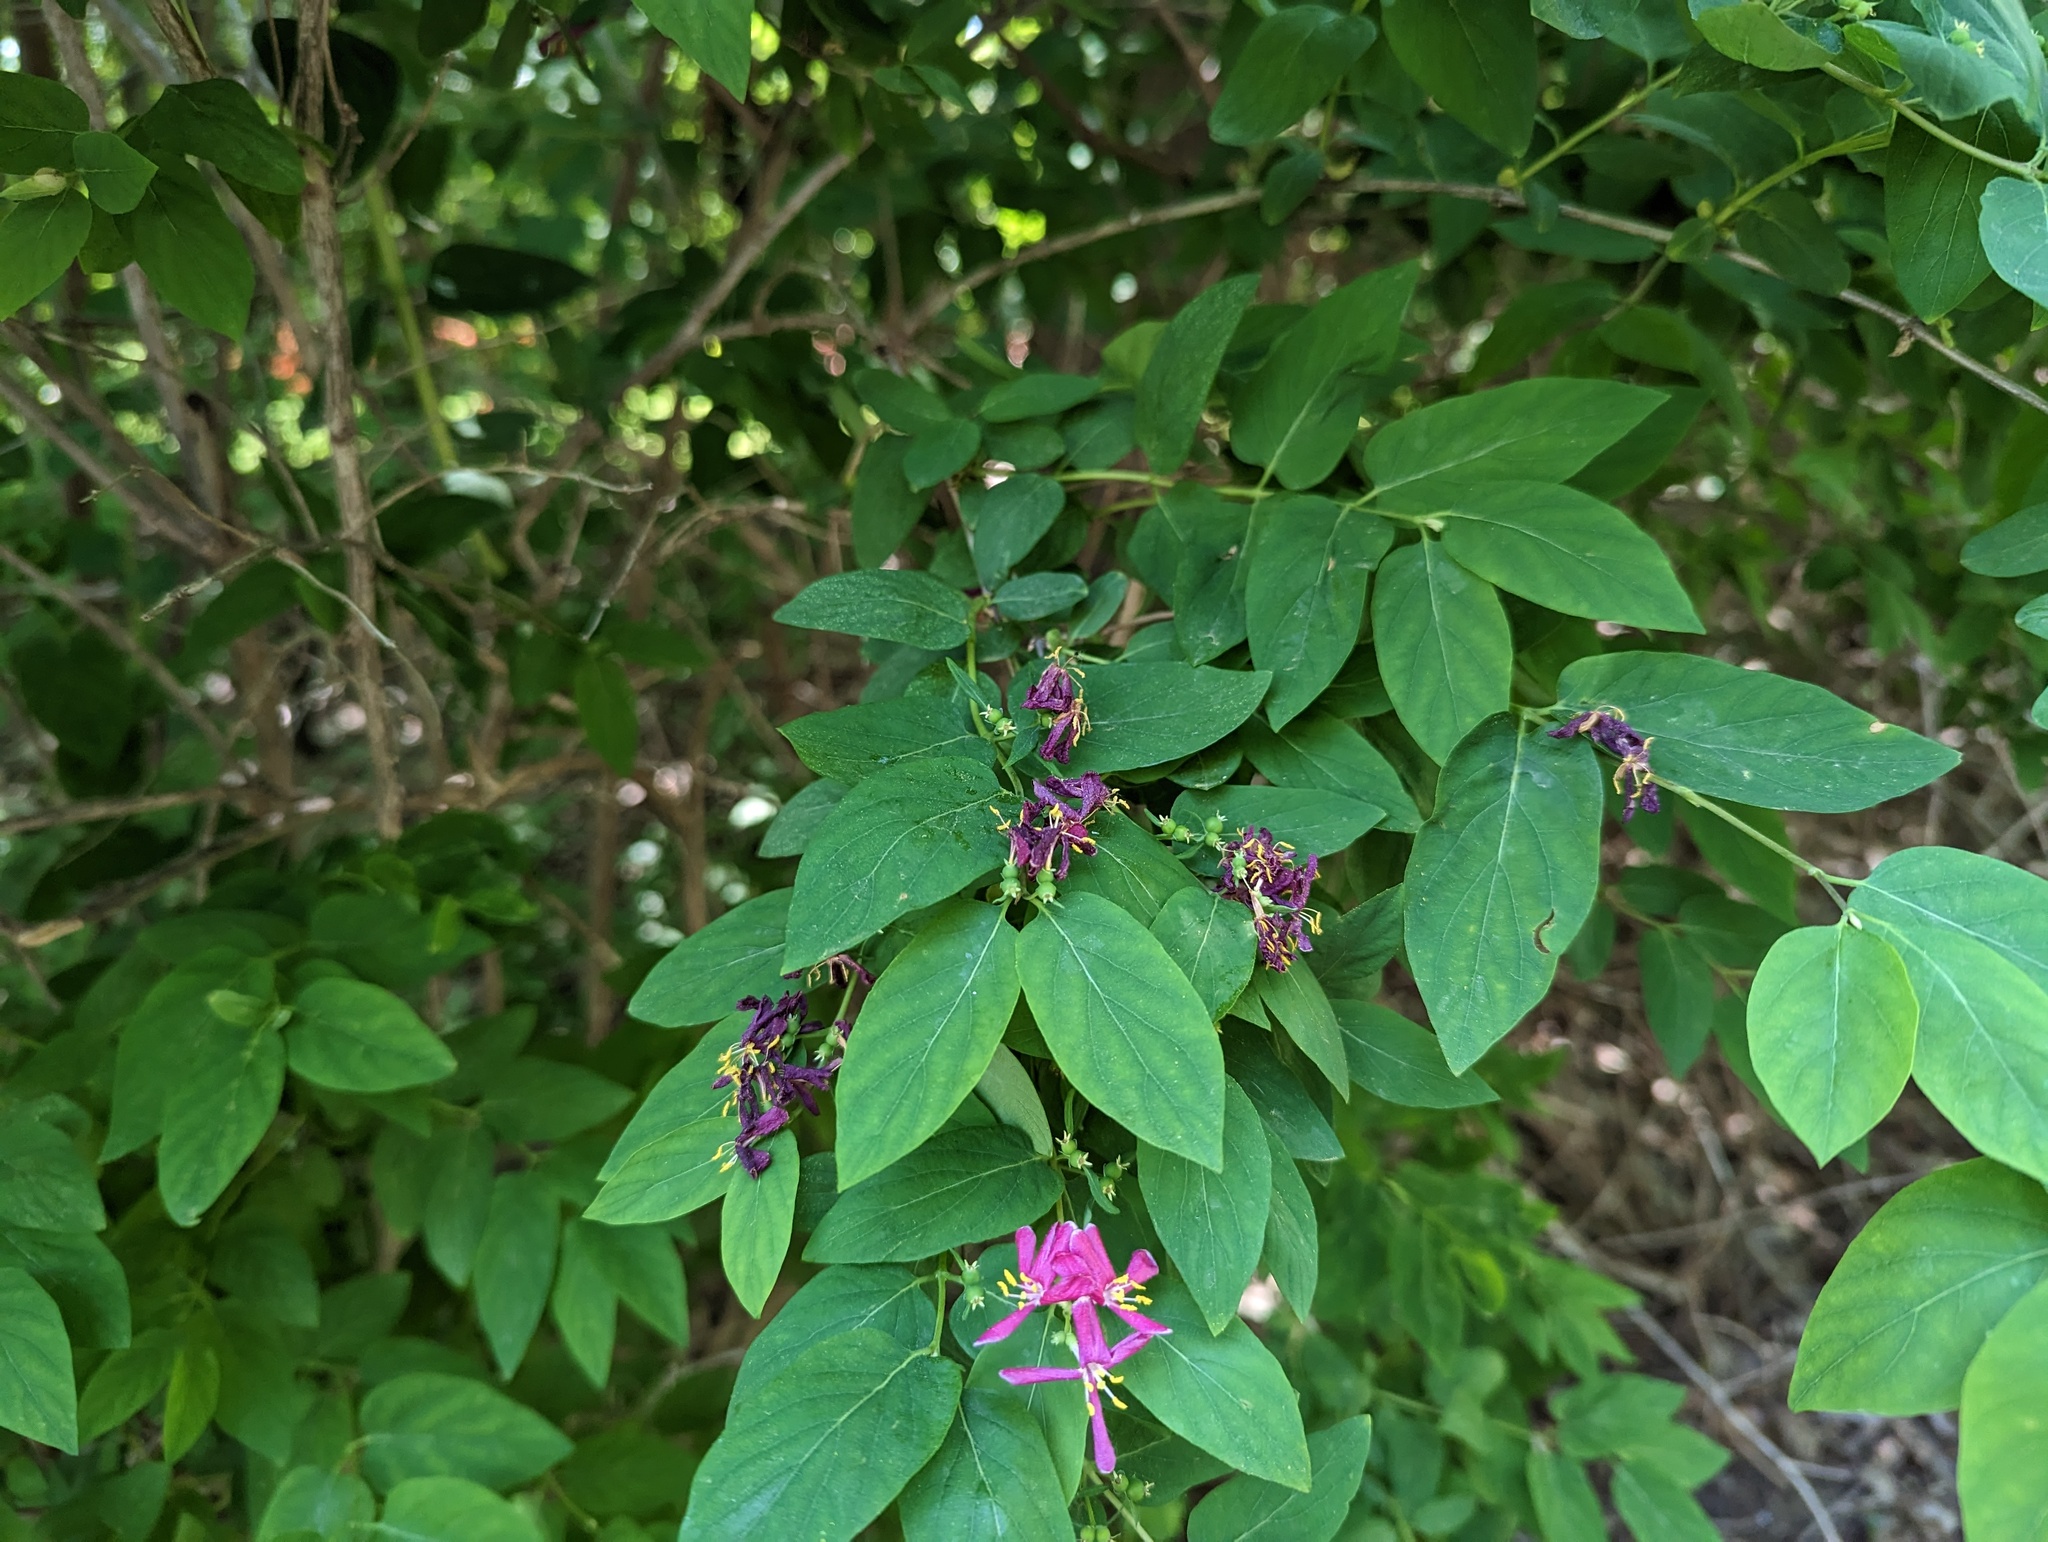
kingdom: Plantae
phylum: Tracheophyta
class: Magnoliopsida
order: Dipsacales
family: Caprifoliaceae
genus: Lonicera
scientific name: Lonicera tatarica
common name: Tatarian honeysuckle
